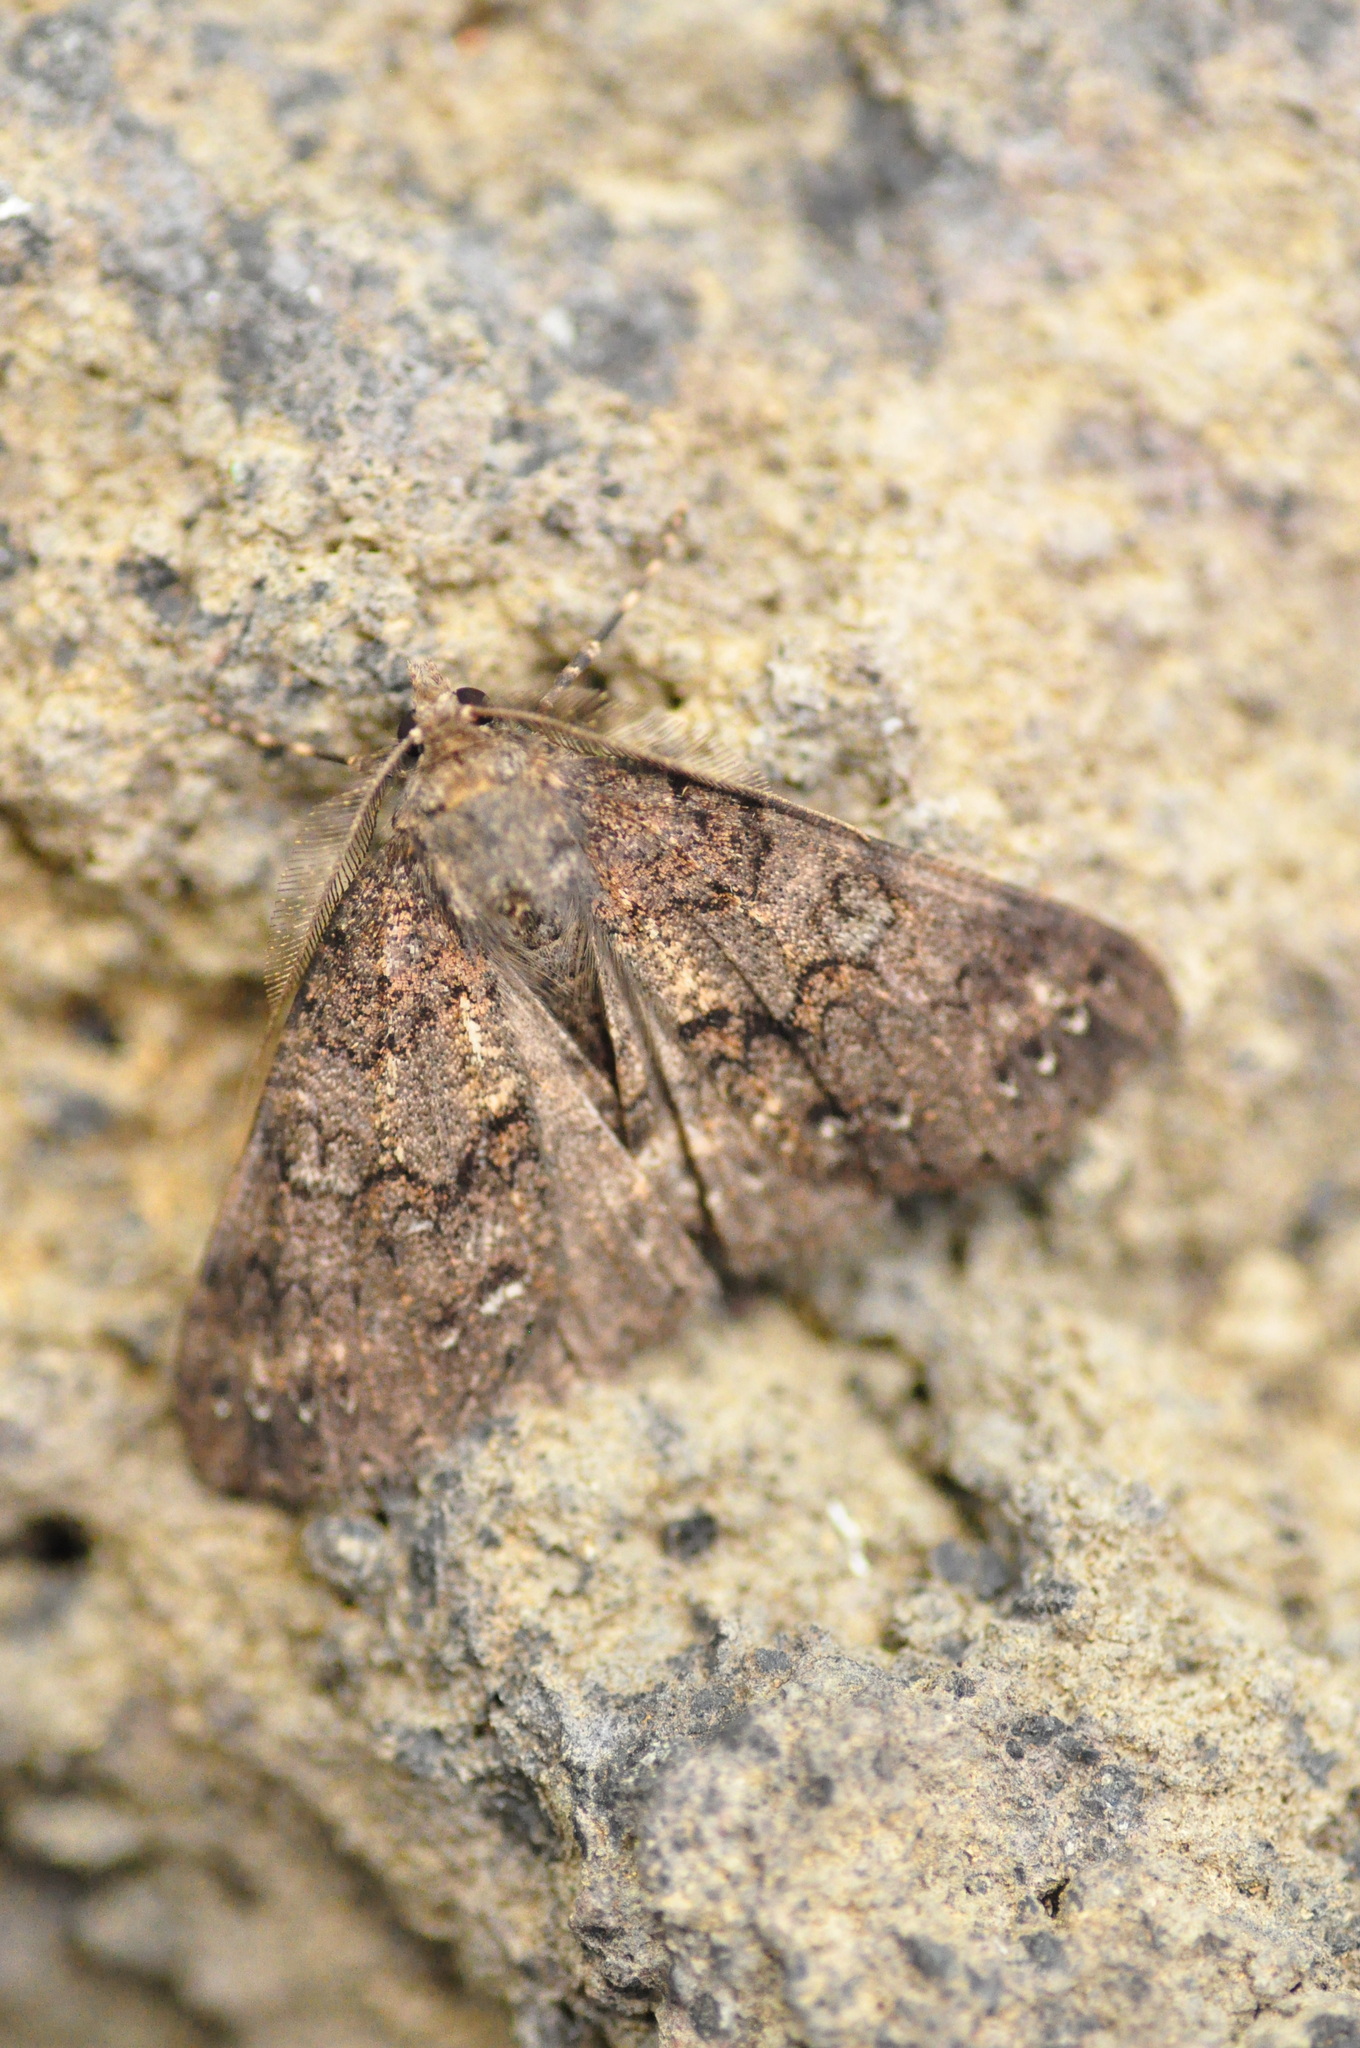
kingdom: Animalia
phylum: Arthropoda
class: Insecta
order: Lepidoptera
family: Geometridae
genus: Ascotis
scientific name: Ascotis fortunata
